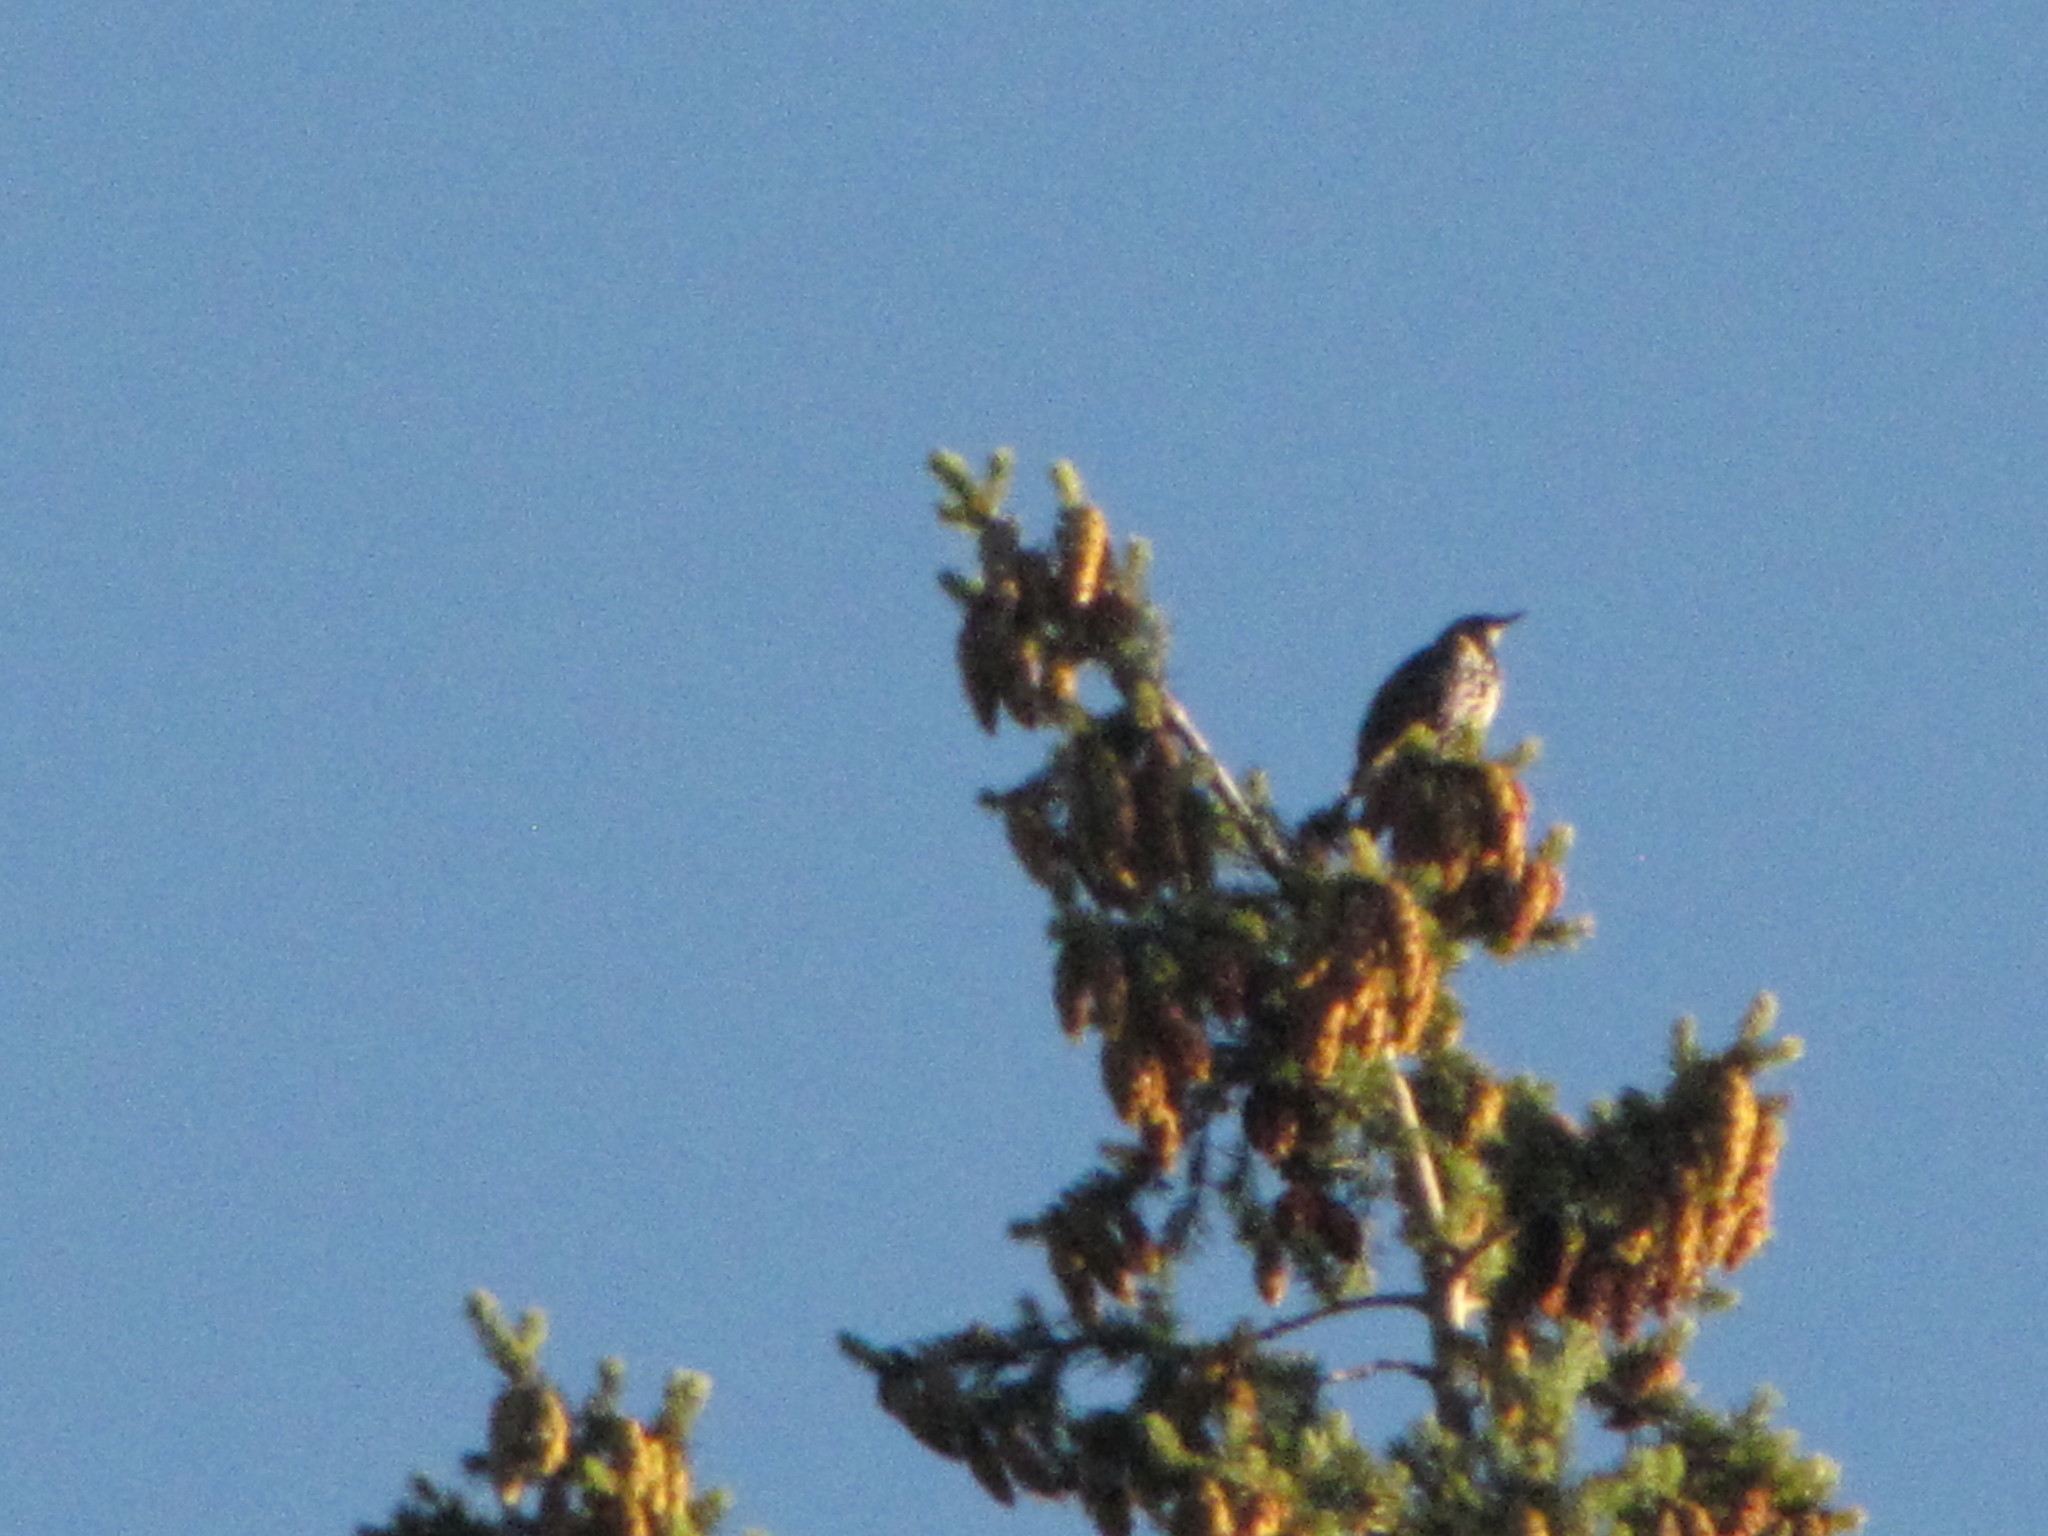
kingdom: Animalia
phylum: Chordata
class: Aves
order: Passeriformes
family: Sturnidae
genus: Sturnus
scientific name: Sturnus vulgaris
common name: Common starling
